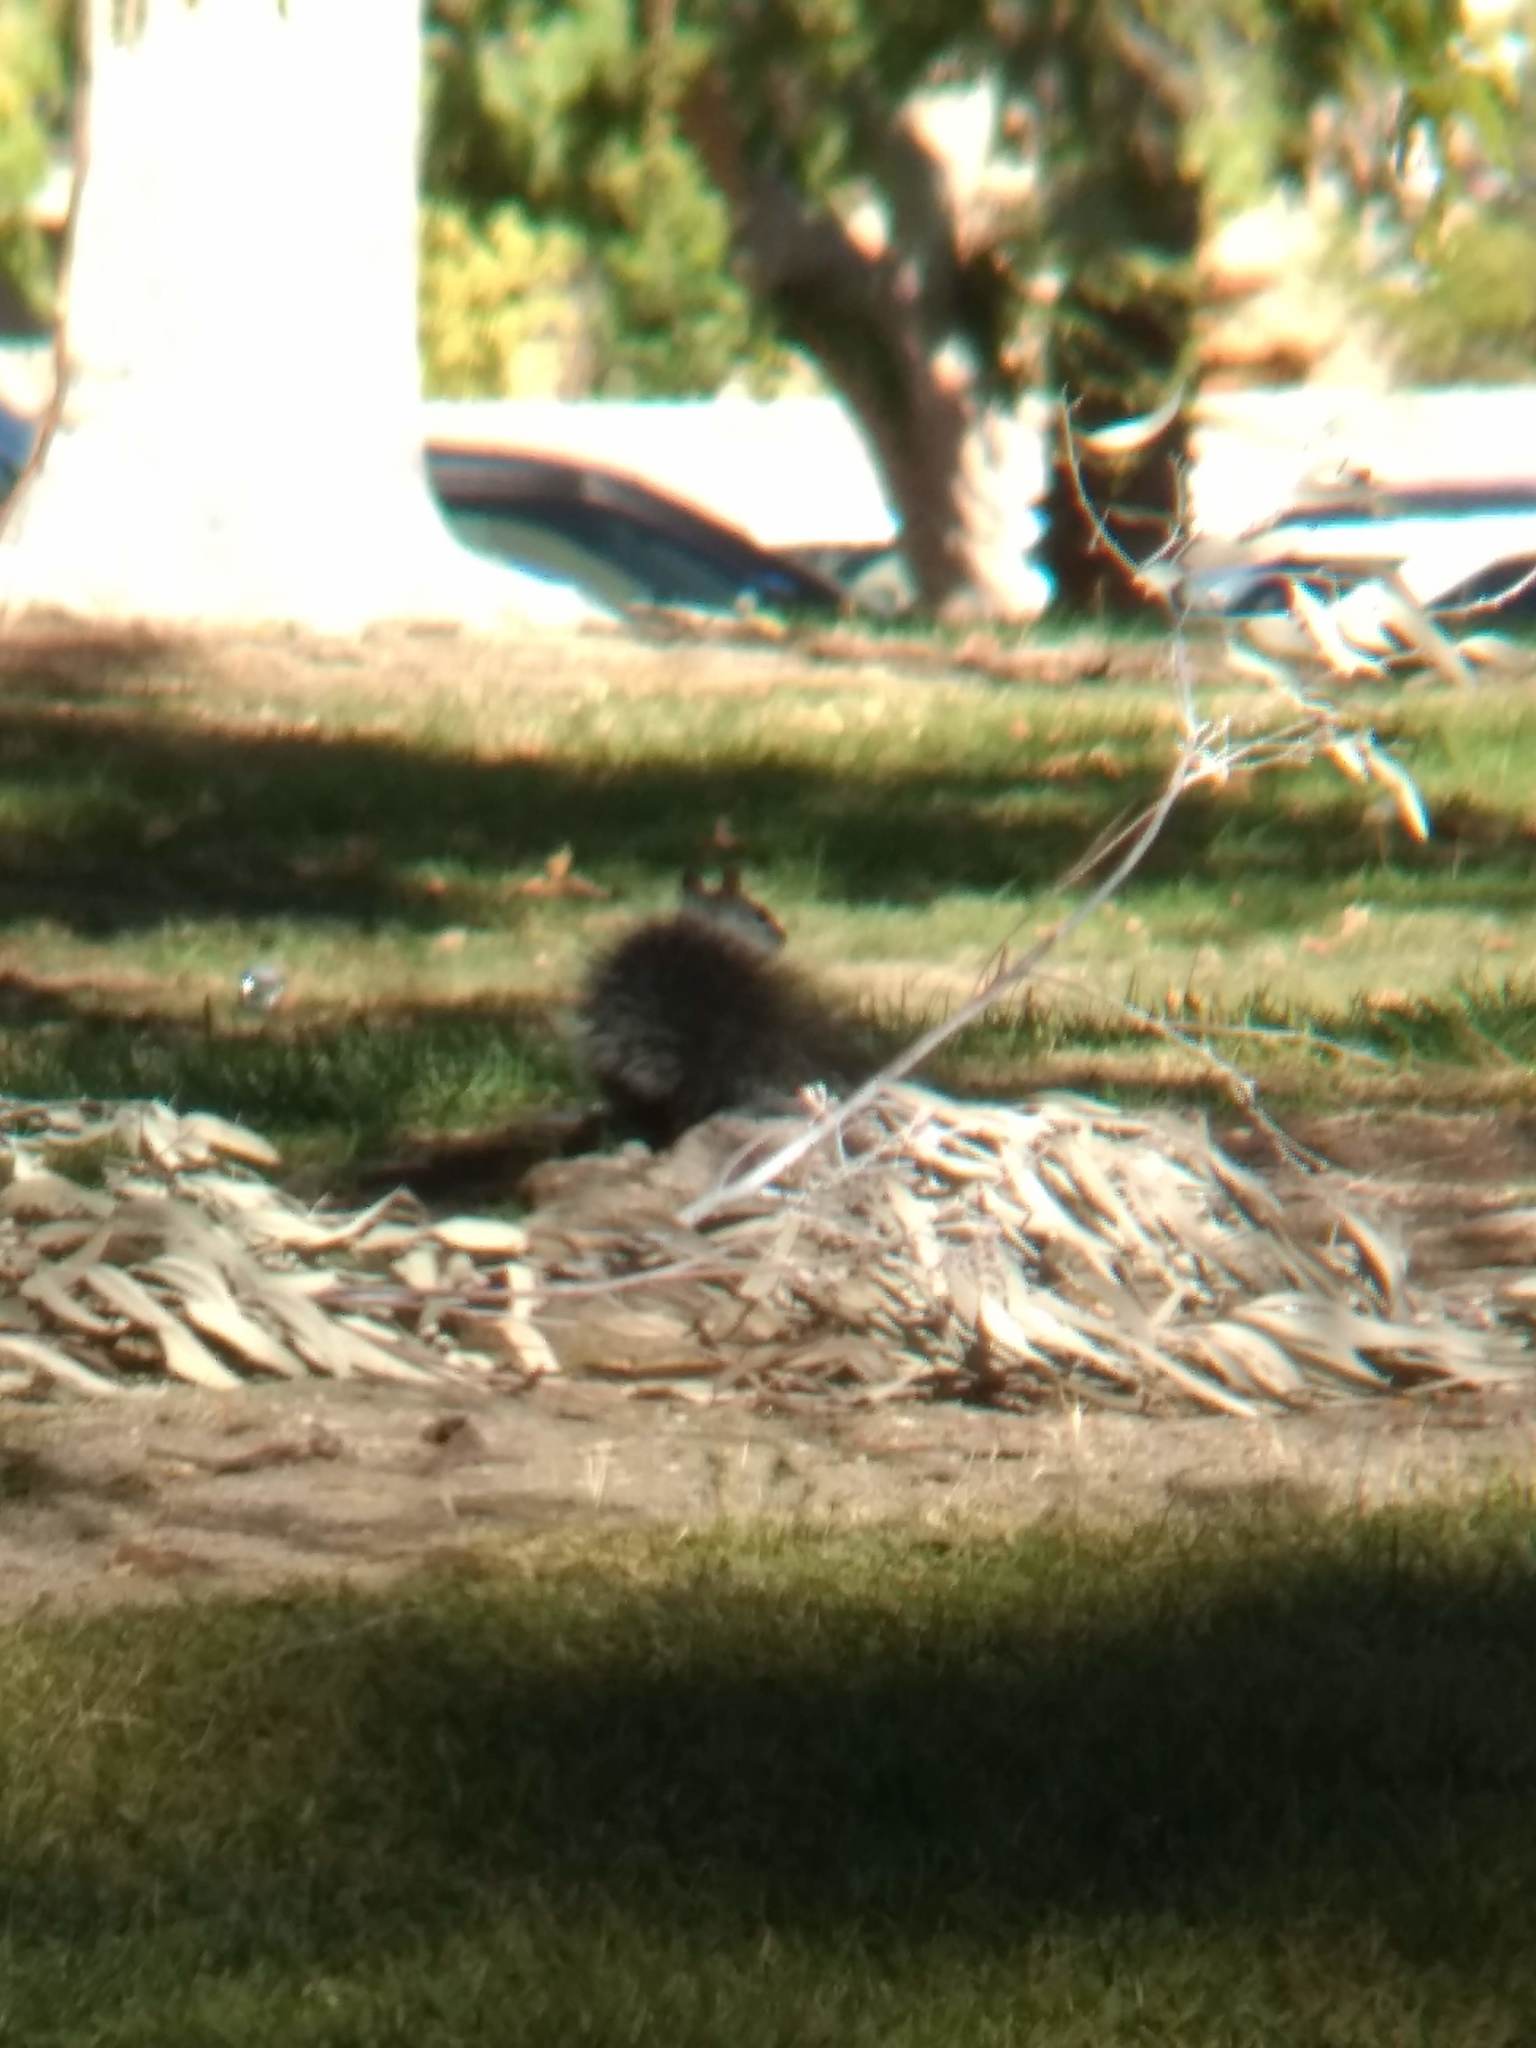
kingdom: Animalia
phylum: Chordata
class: Mammalia
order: Rodentia
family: Sciuridae
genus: Sciurus
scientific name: Sciurus griseus
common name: Western gray squirrel
